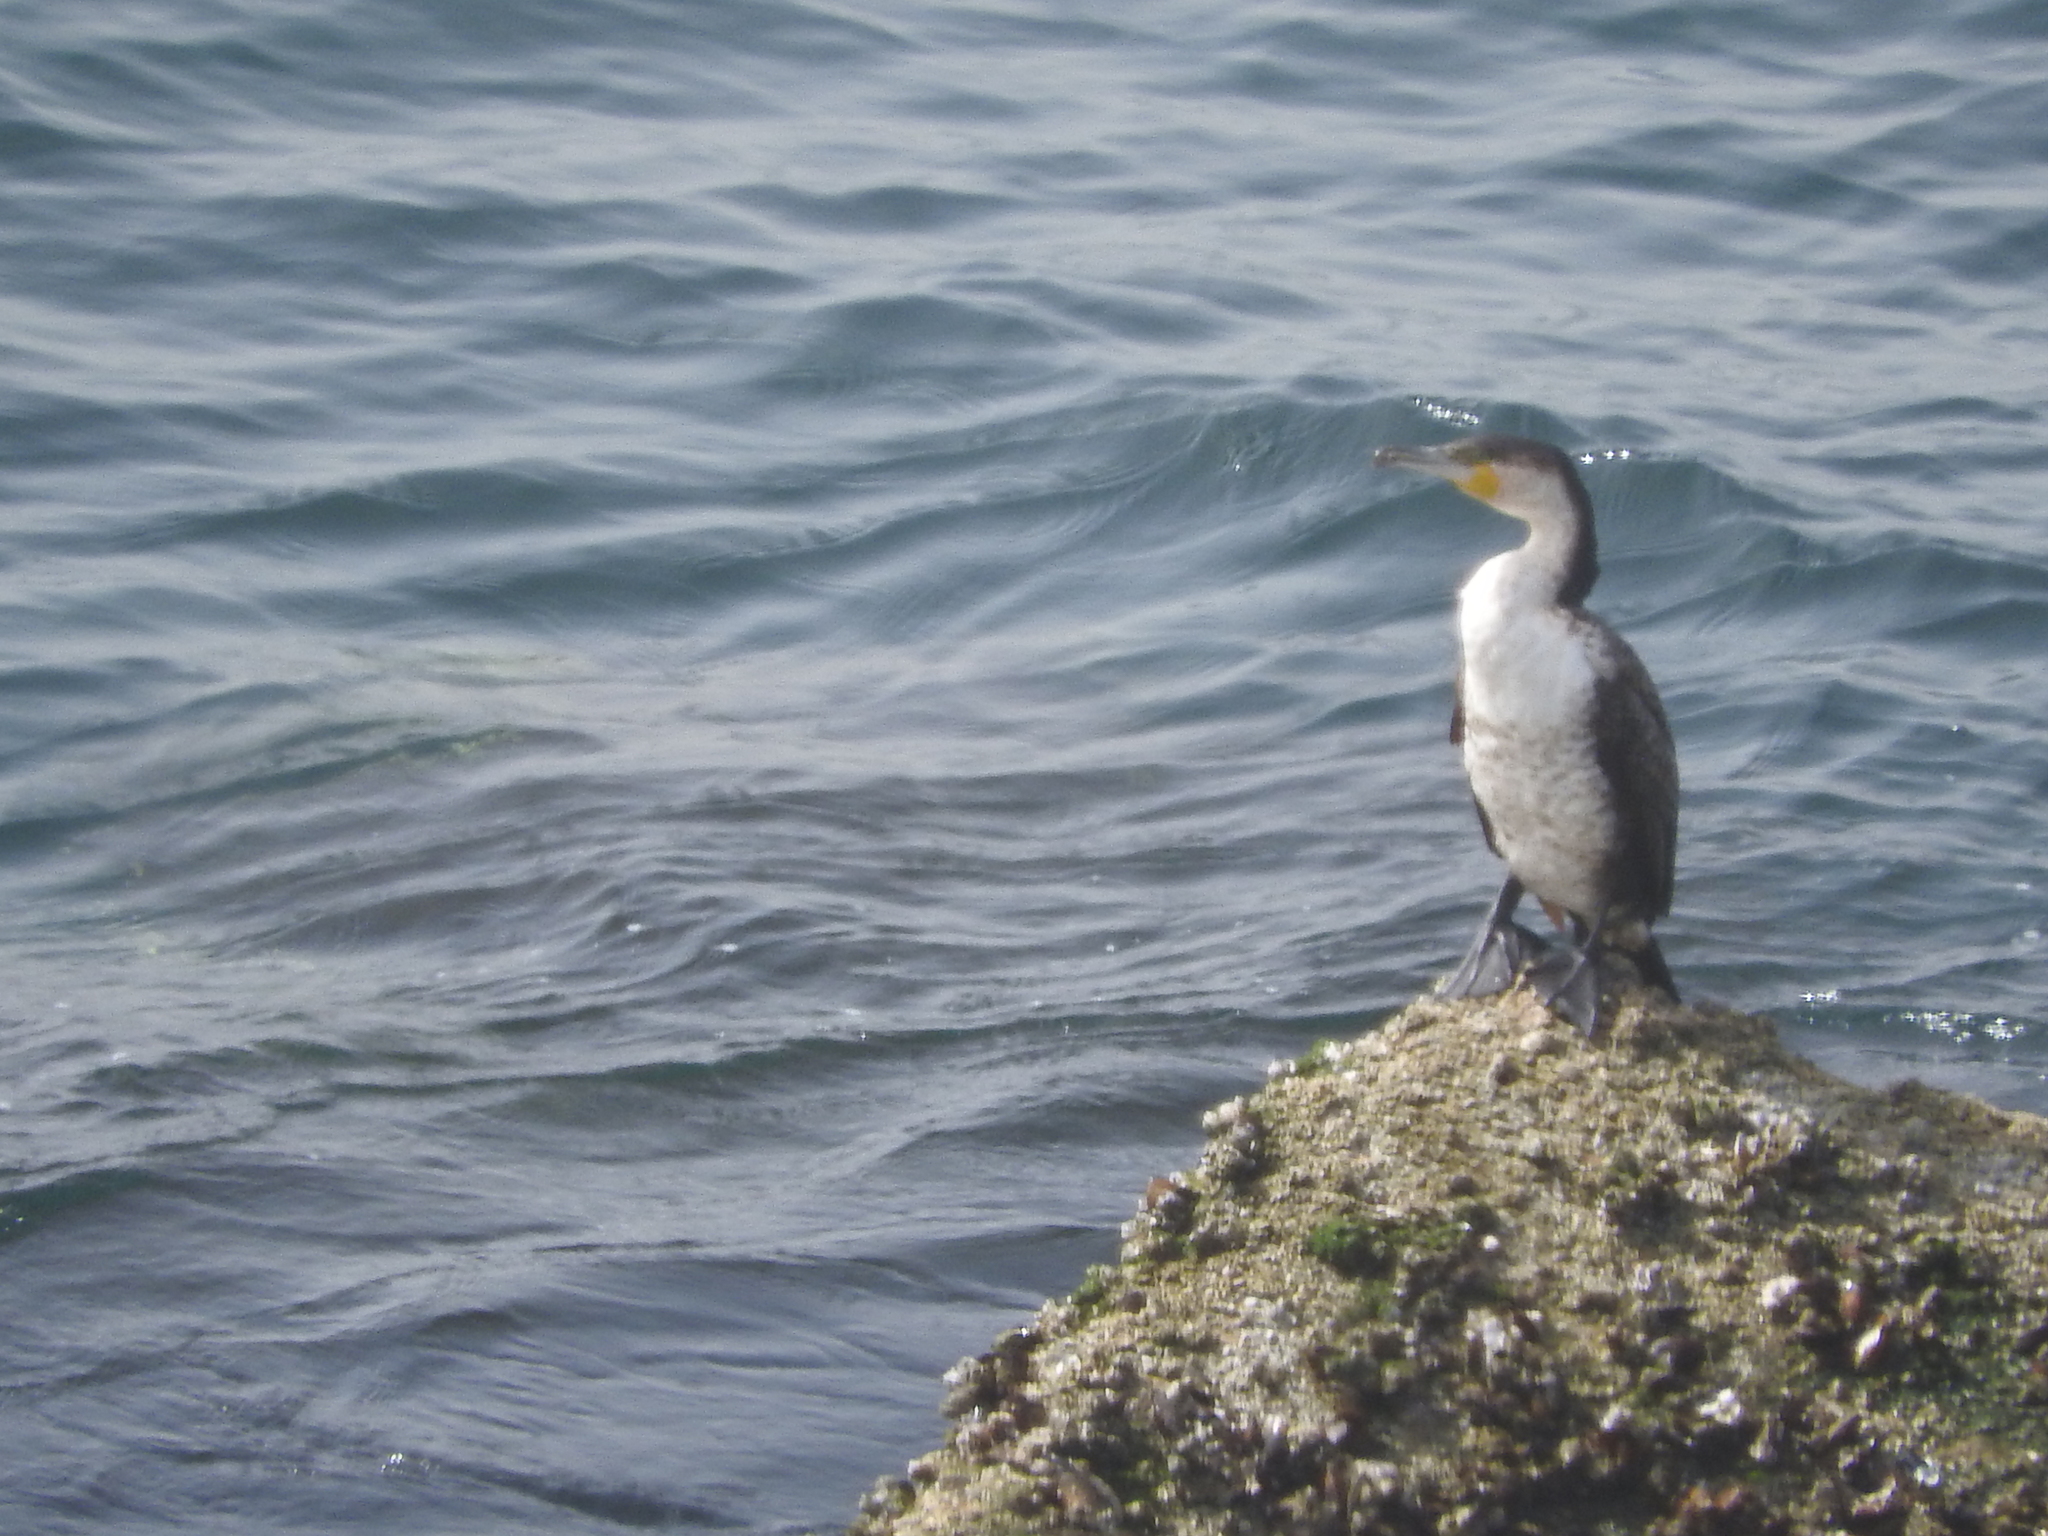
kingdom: Animalia
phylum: Chordata
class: Aves
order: Suliformes
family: Phalacrocoracidae
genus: Phalacrocorax
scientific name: Phalacrocorax carbo
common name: Great cormorant
